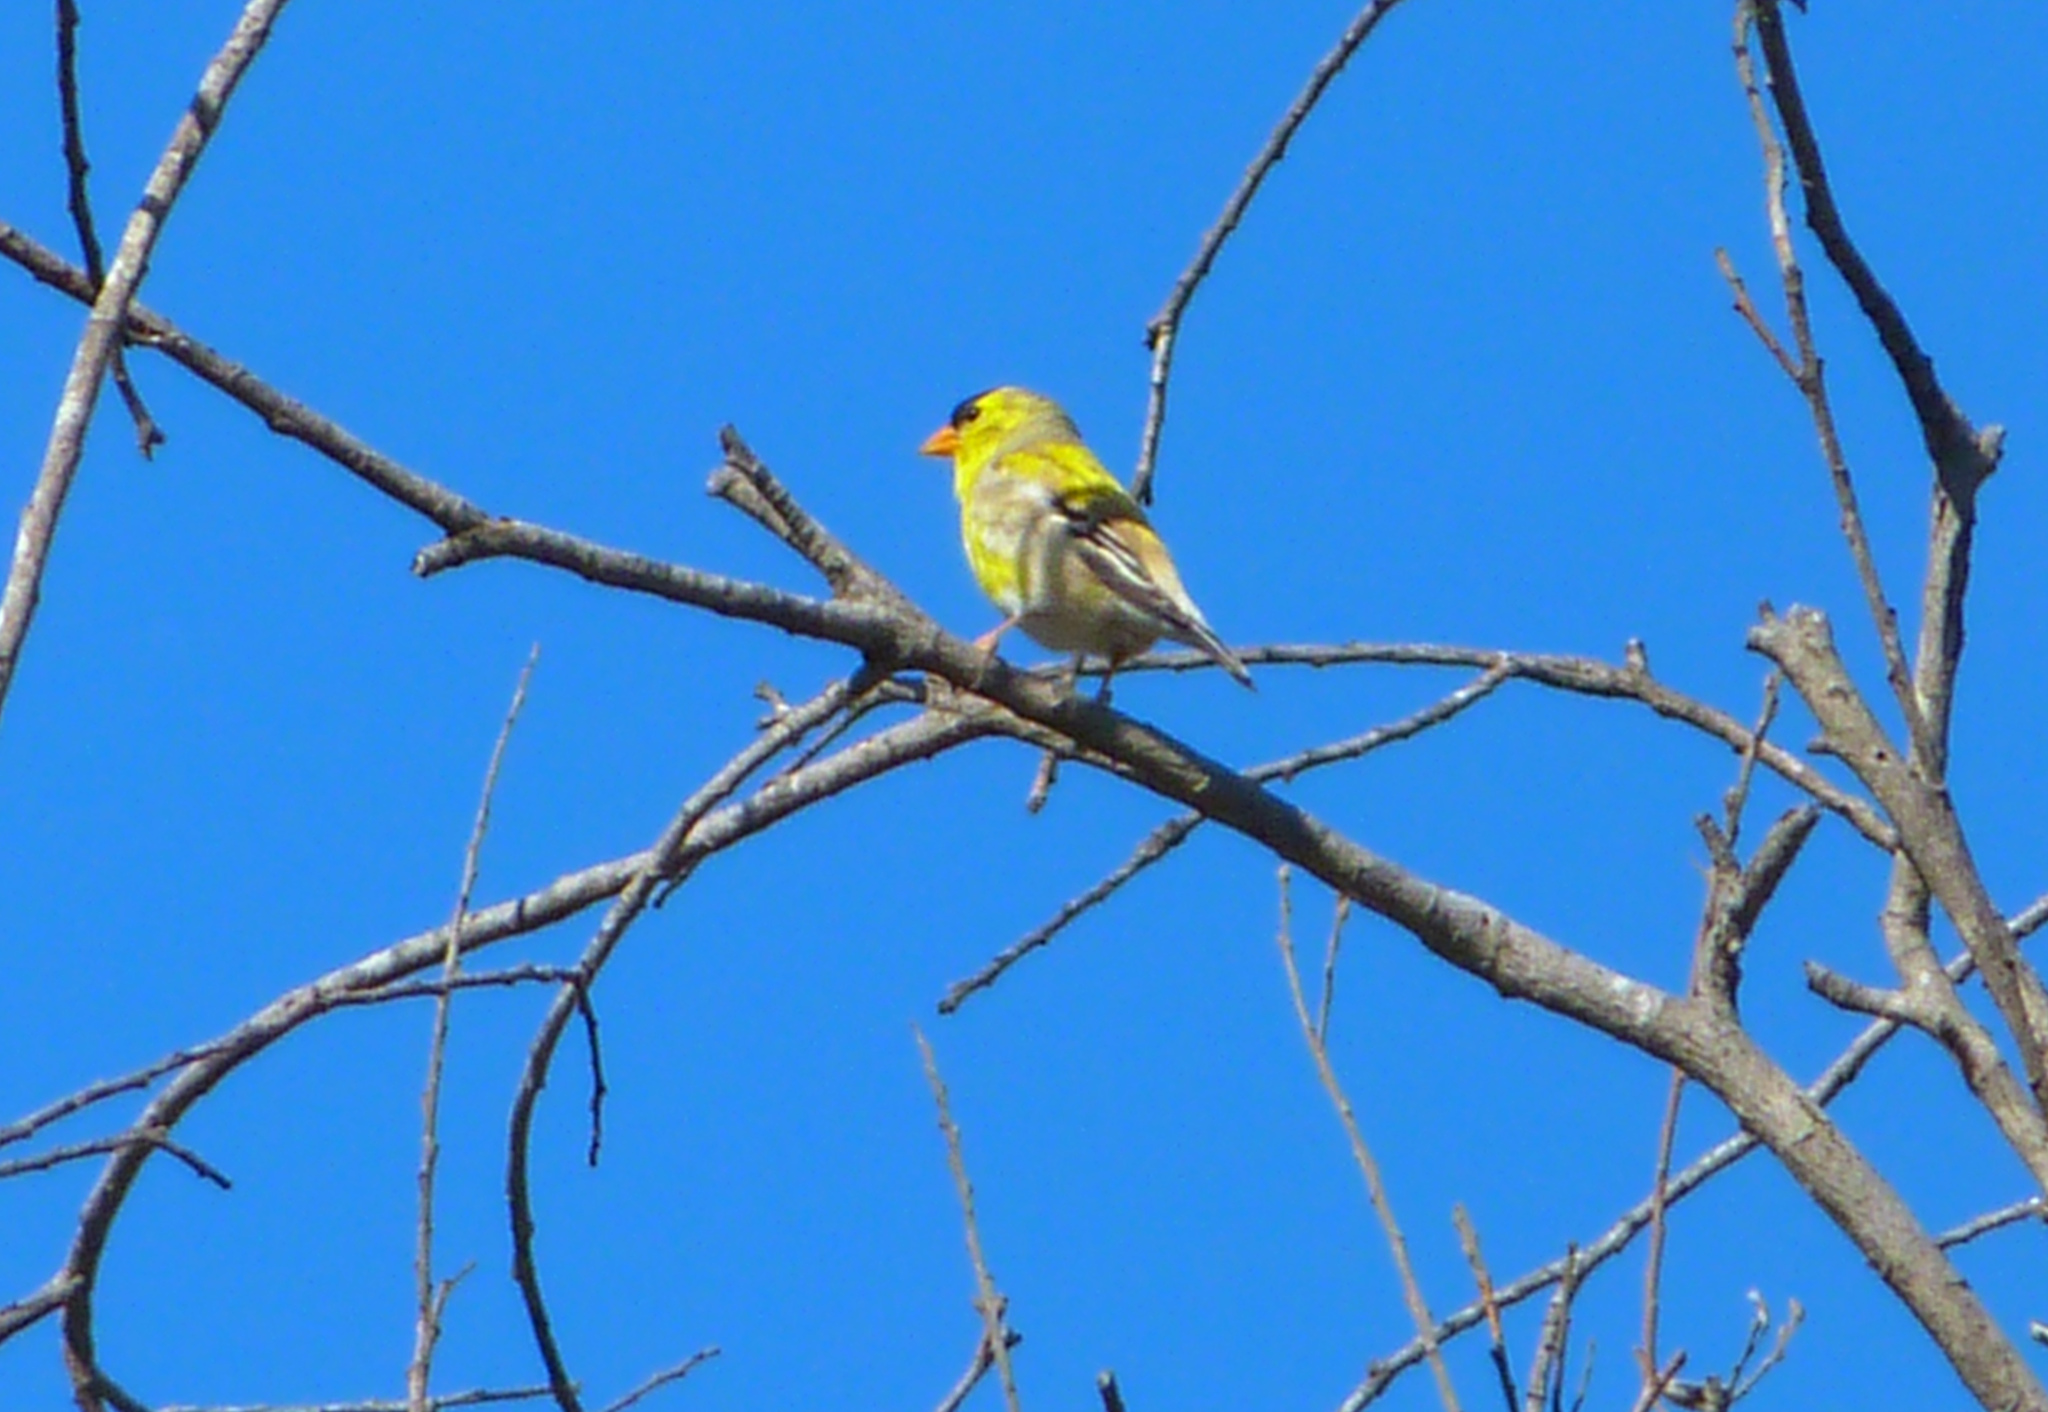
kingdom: Animalia
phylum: Chordata
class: Aves
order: Passeriformes
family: Fringillidae
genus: Spinus
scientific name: Spinus tristis
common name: American goldfinch
